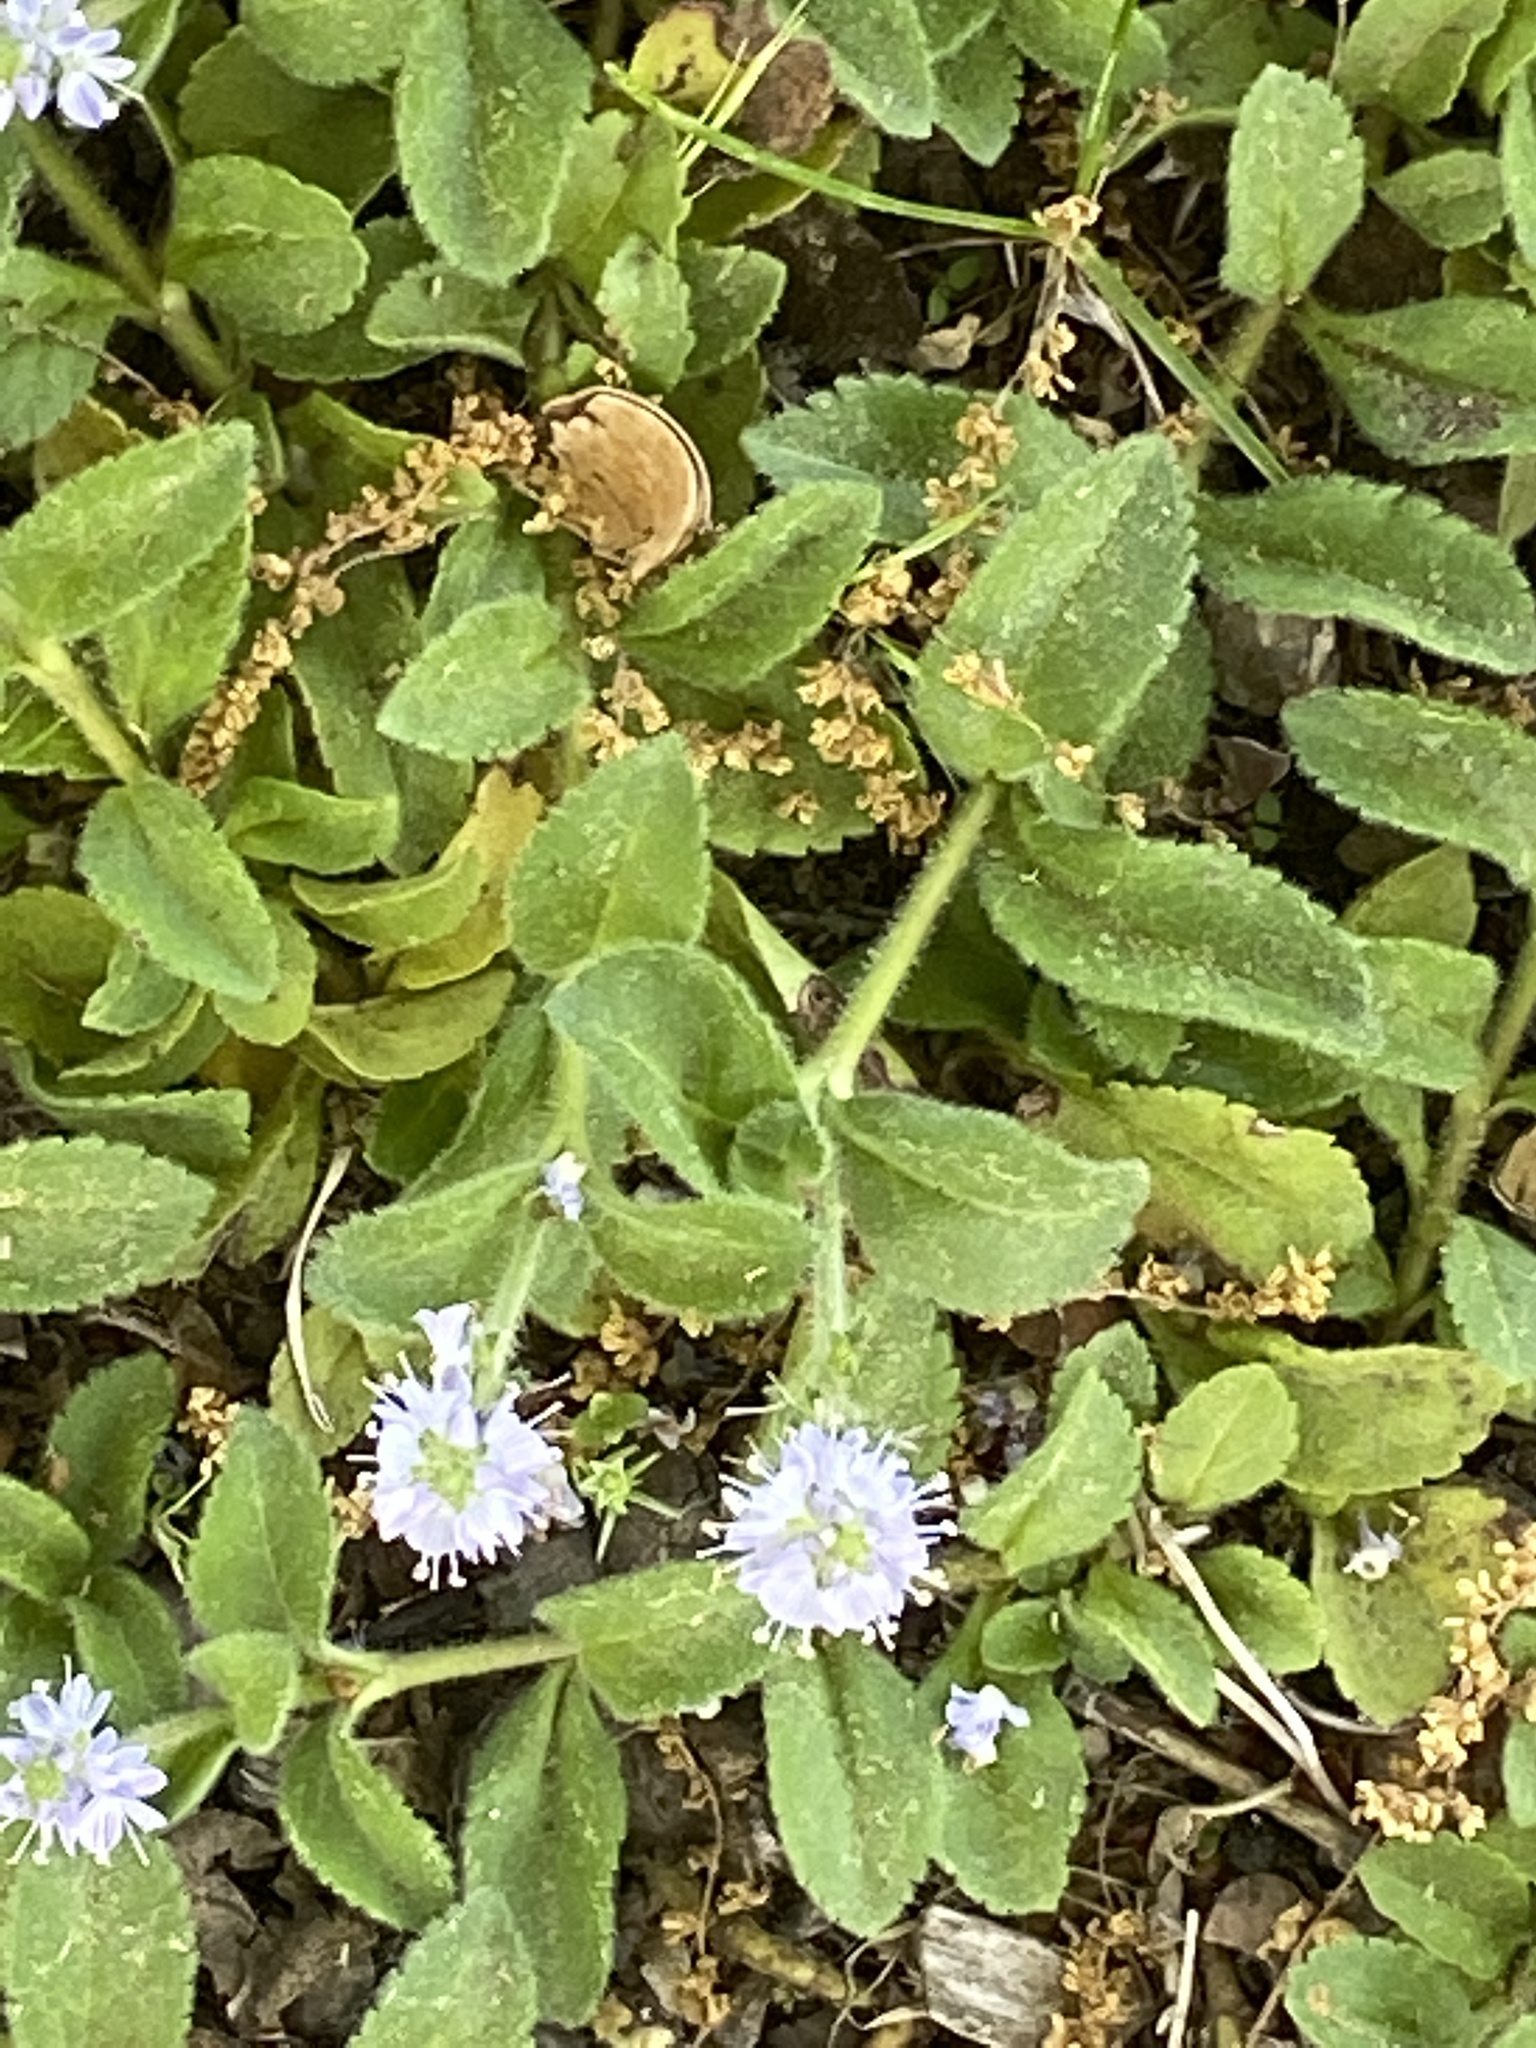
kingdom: Plantae
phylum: Tracheophyta
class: Magnoliopsida
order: Lamiales
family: Plantaginaceae
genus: Veronica
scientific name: Veronica officinalis
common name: Common speedwell
